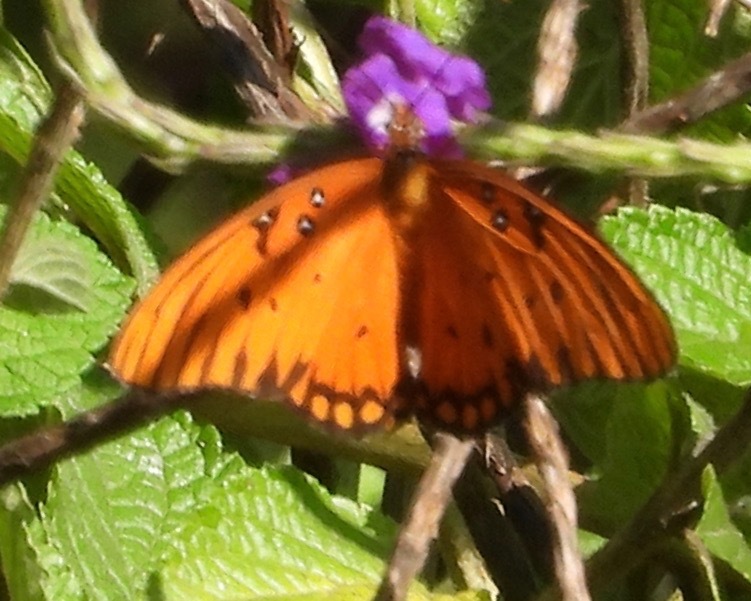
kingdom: Animalia
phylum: Arthropoda
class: Insecta
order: Lepidoptera
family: Nymphalidae
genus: Dione
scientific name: Dione vanillae
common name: Gulf fritillary
